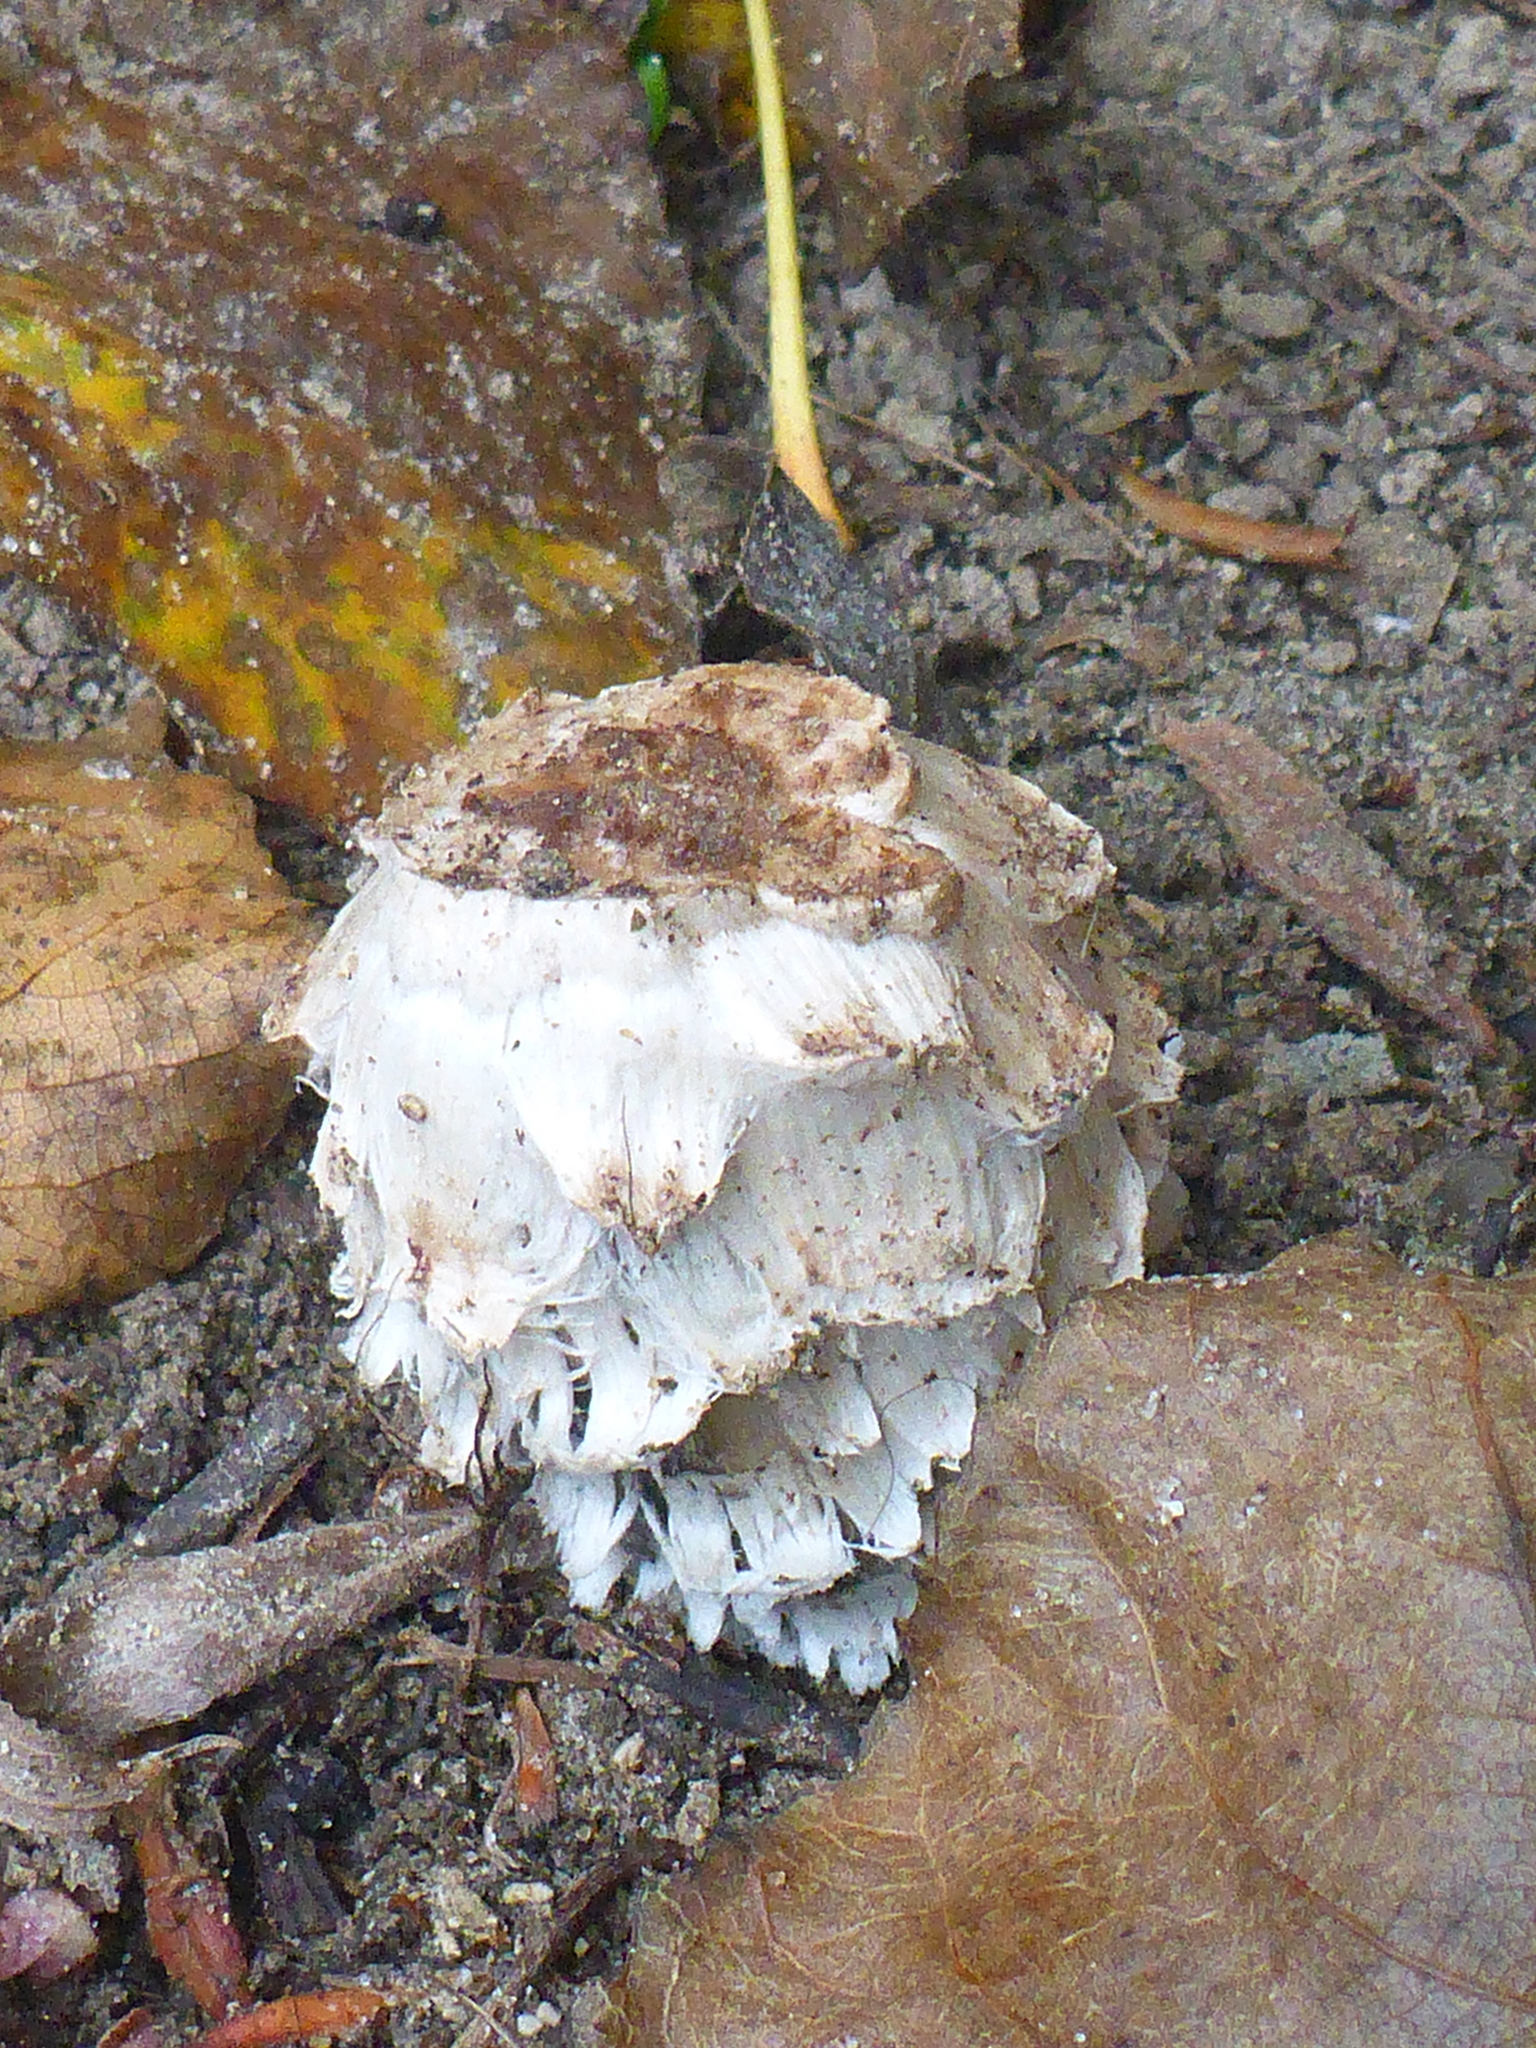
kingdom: Fungi
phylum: Basidiomycota
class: Agaricomycetes
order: Agaricales
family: Agaricaceae
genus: Coprinus
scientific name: Coprinus comatus
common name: Lawyer's wig
